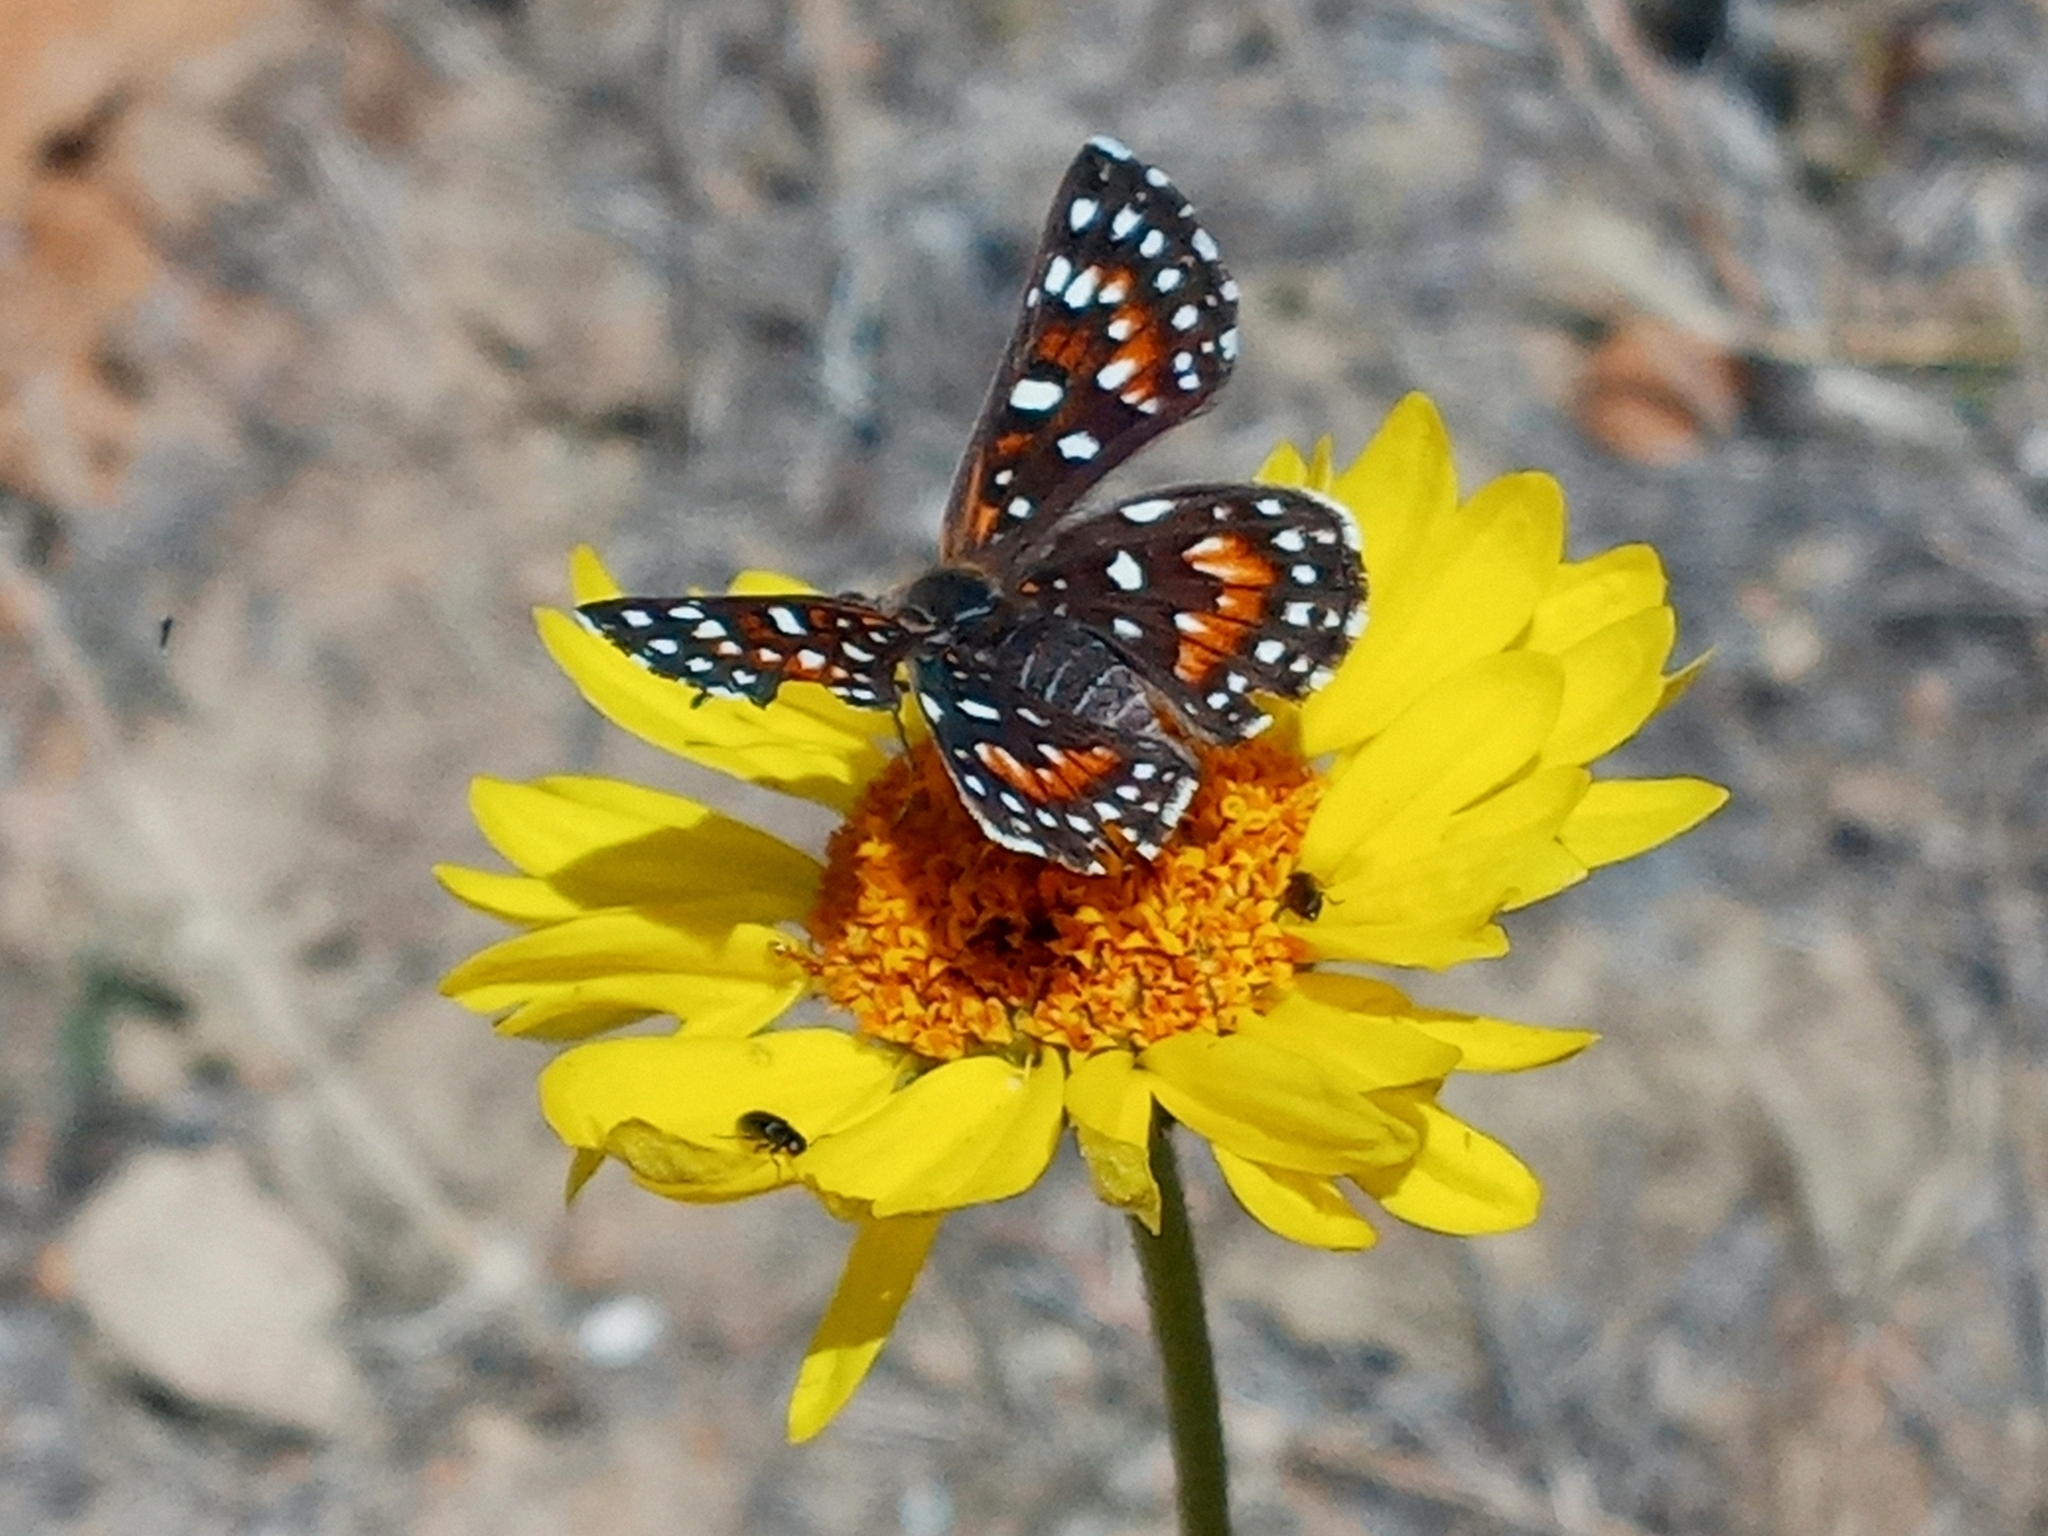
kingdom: Animalia
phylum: Arthropoda
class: Insecta
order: Lepidoptera
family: Riodinidae
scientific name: Riodinidae
